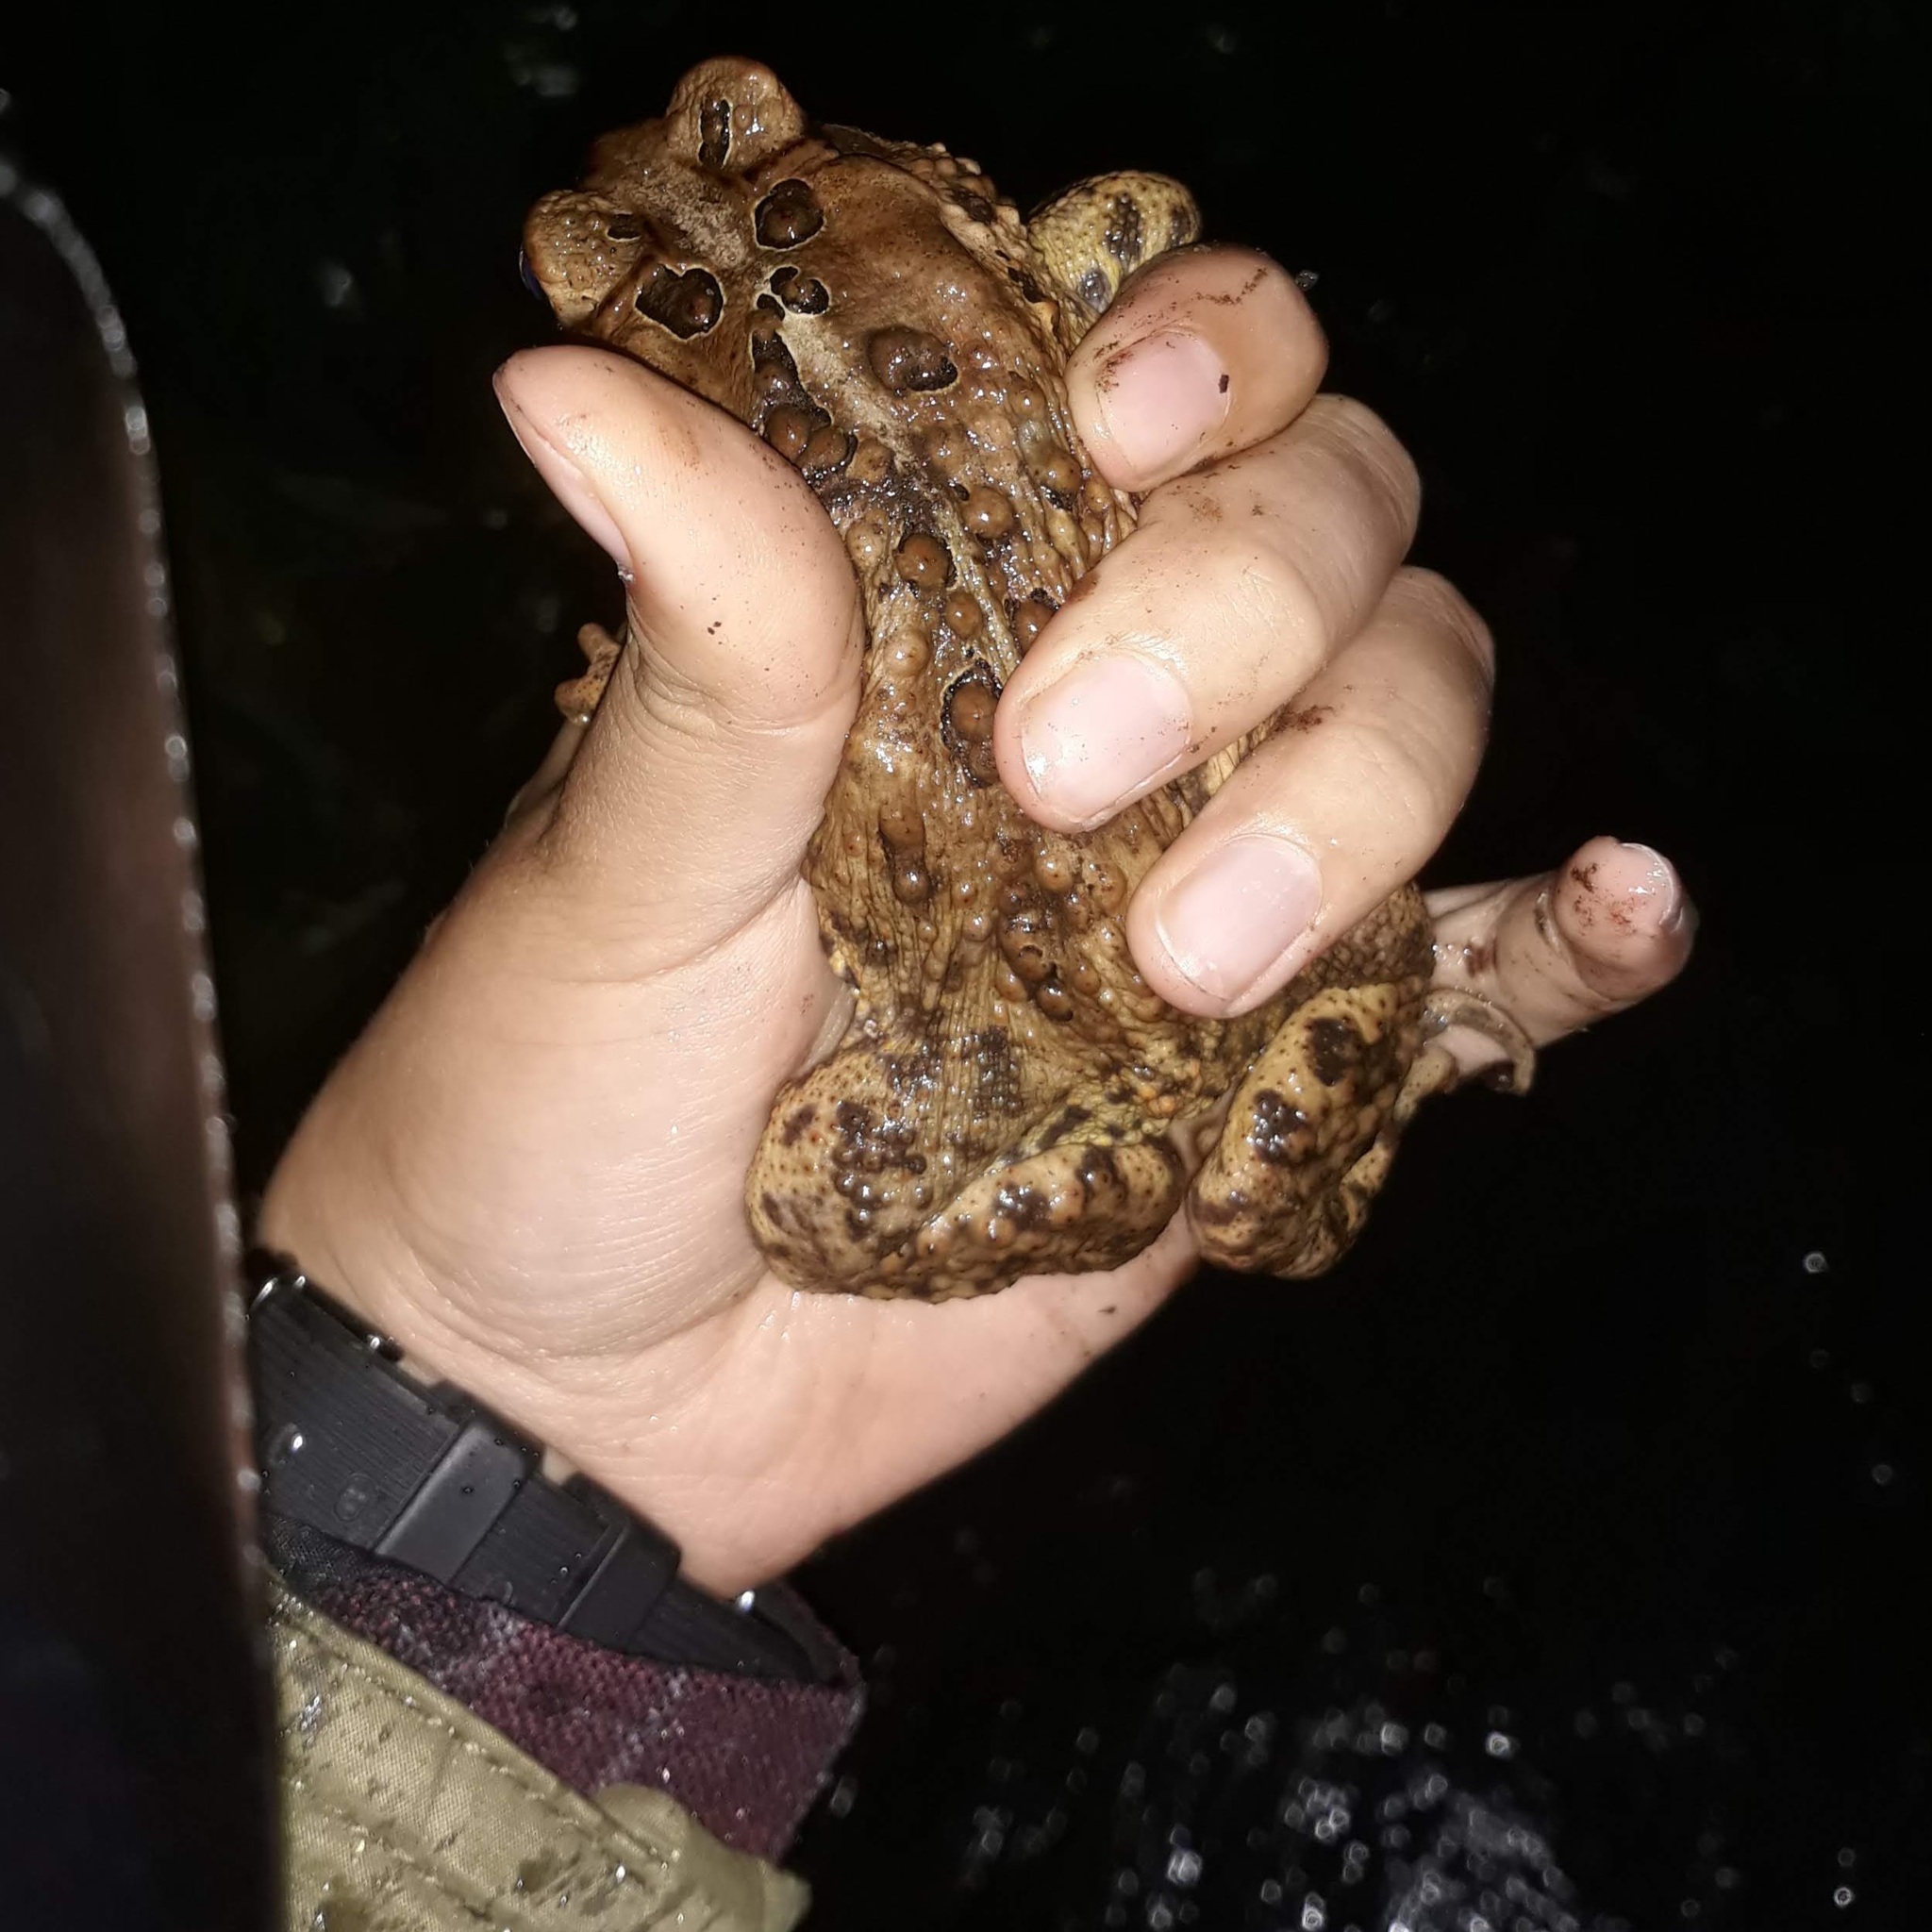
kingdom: Animalia
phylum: Chordata
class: Amphibia
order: Anura
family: Bufonidae
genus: Anaxyrus
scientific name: Anaxyrus americanus
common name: American toad
